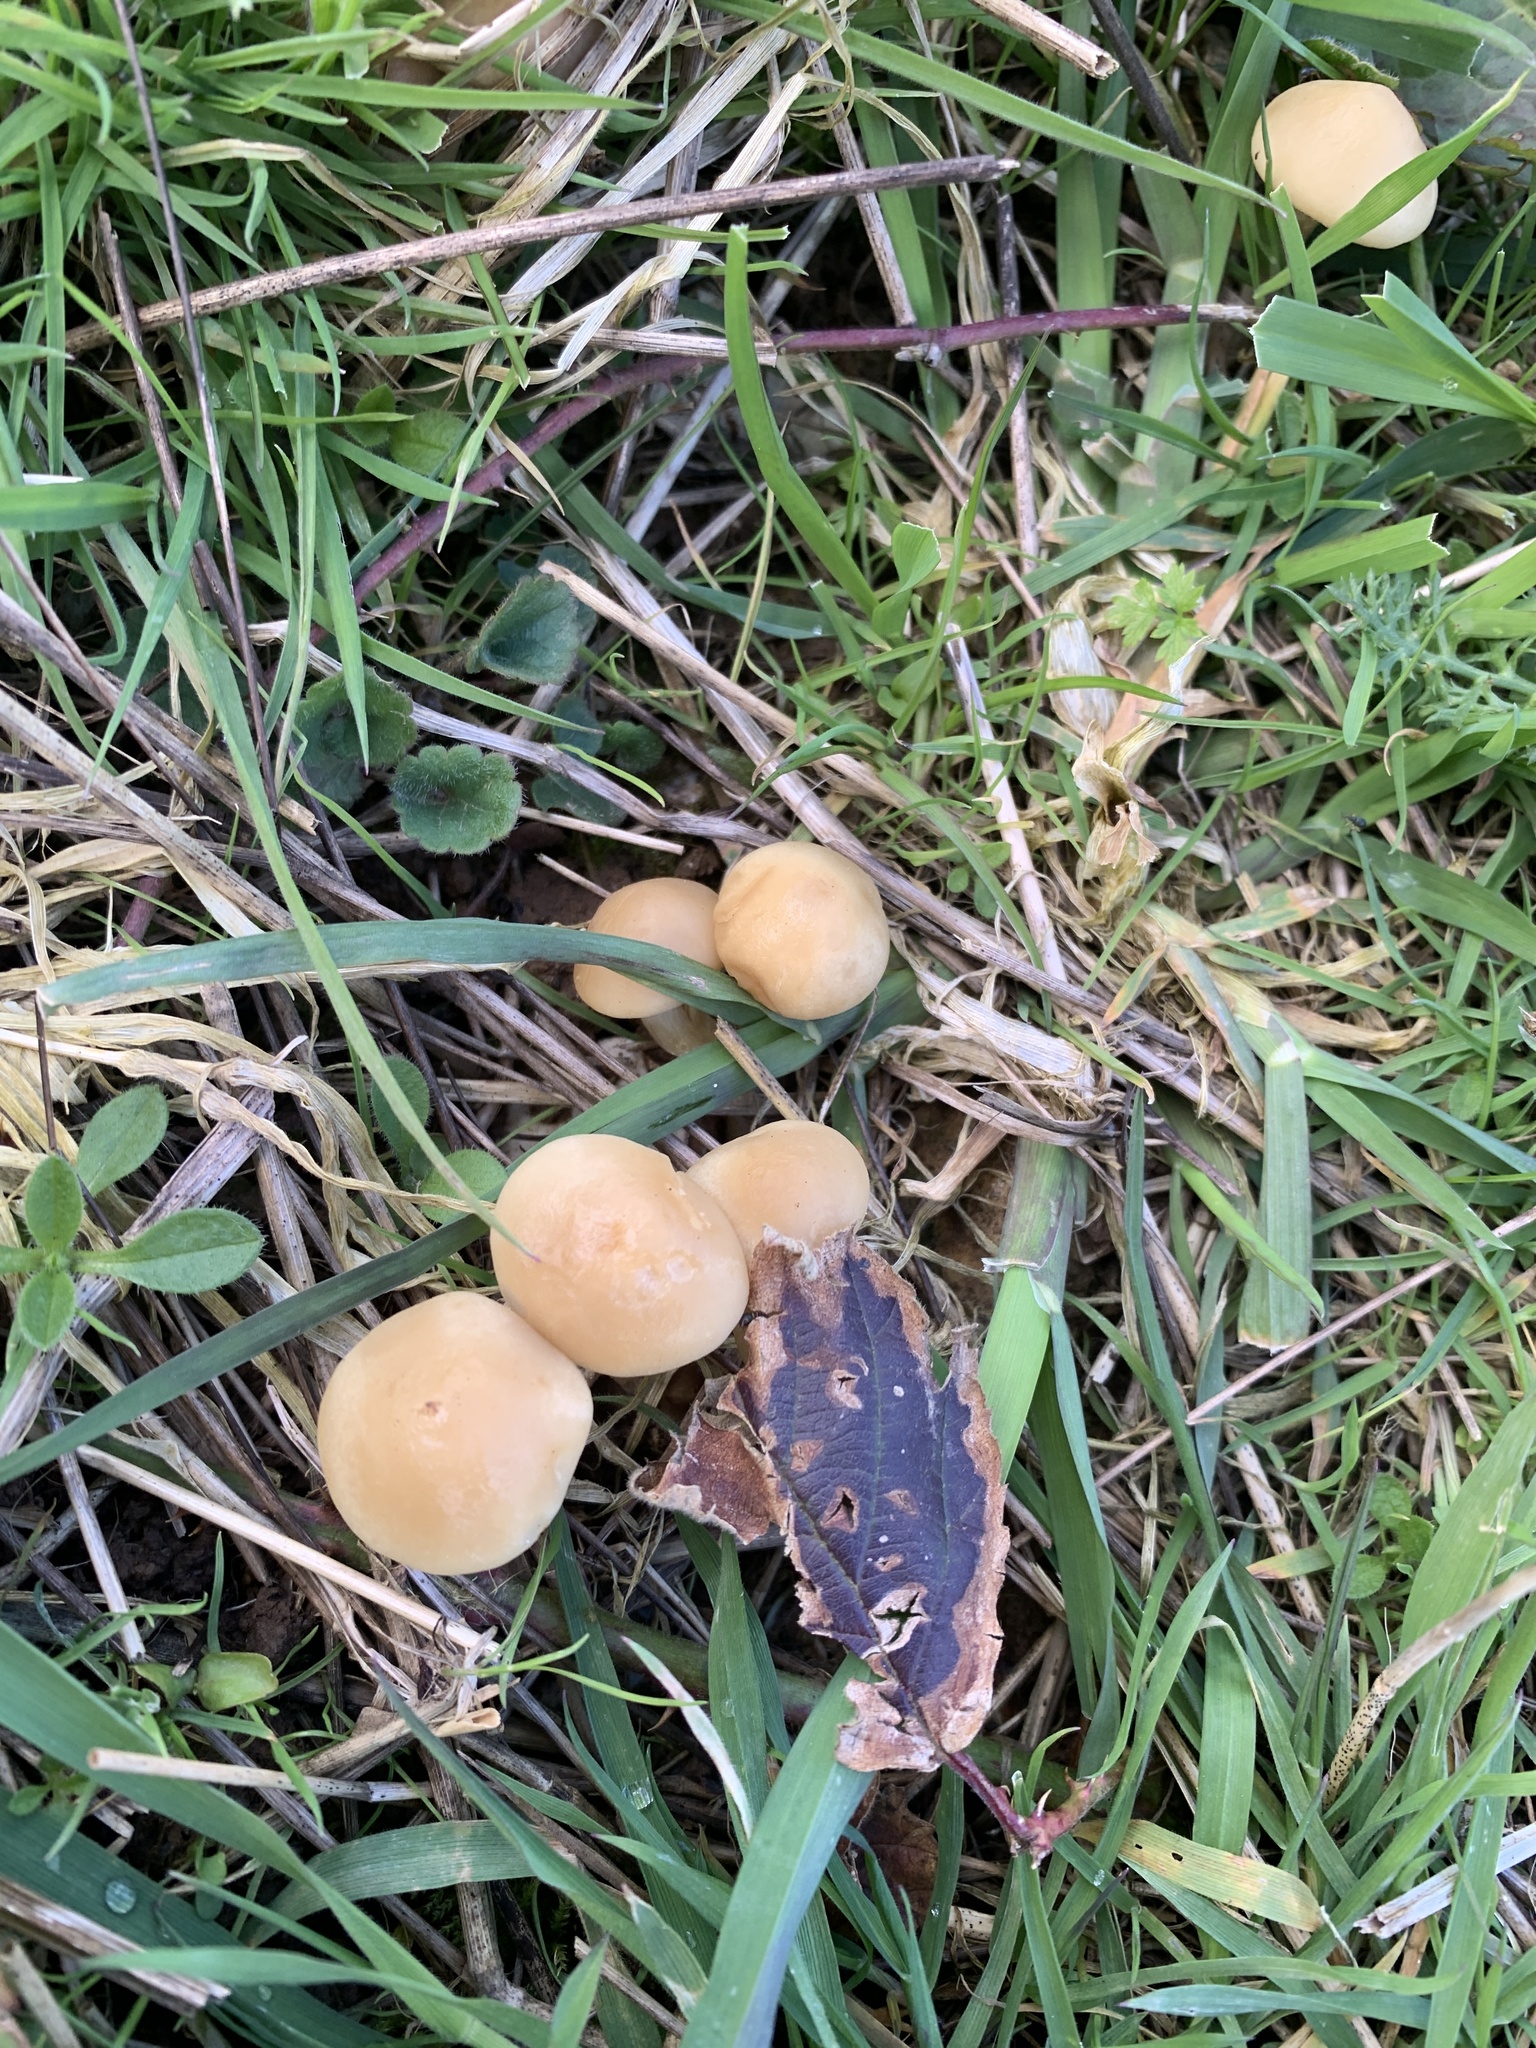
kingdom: Fungi
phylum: Basidiomycota
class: Agaricomycetes
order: Agaricales
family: Psathyrellaceae
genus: Candolleomyces
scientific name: Candolleomyces candolleanus
